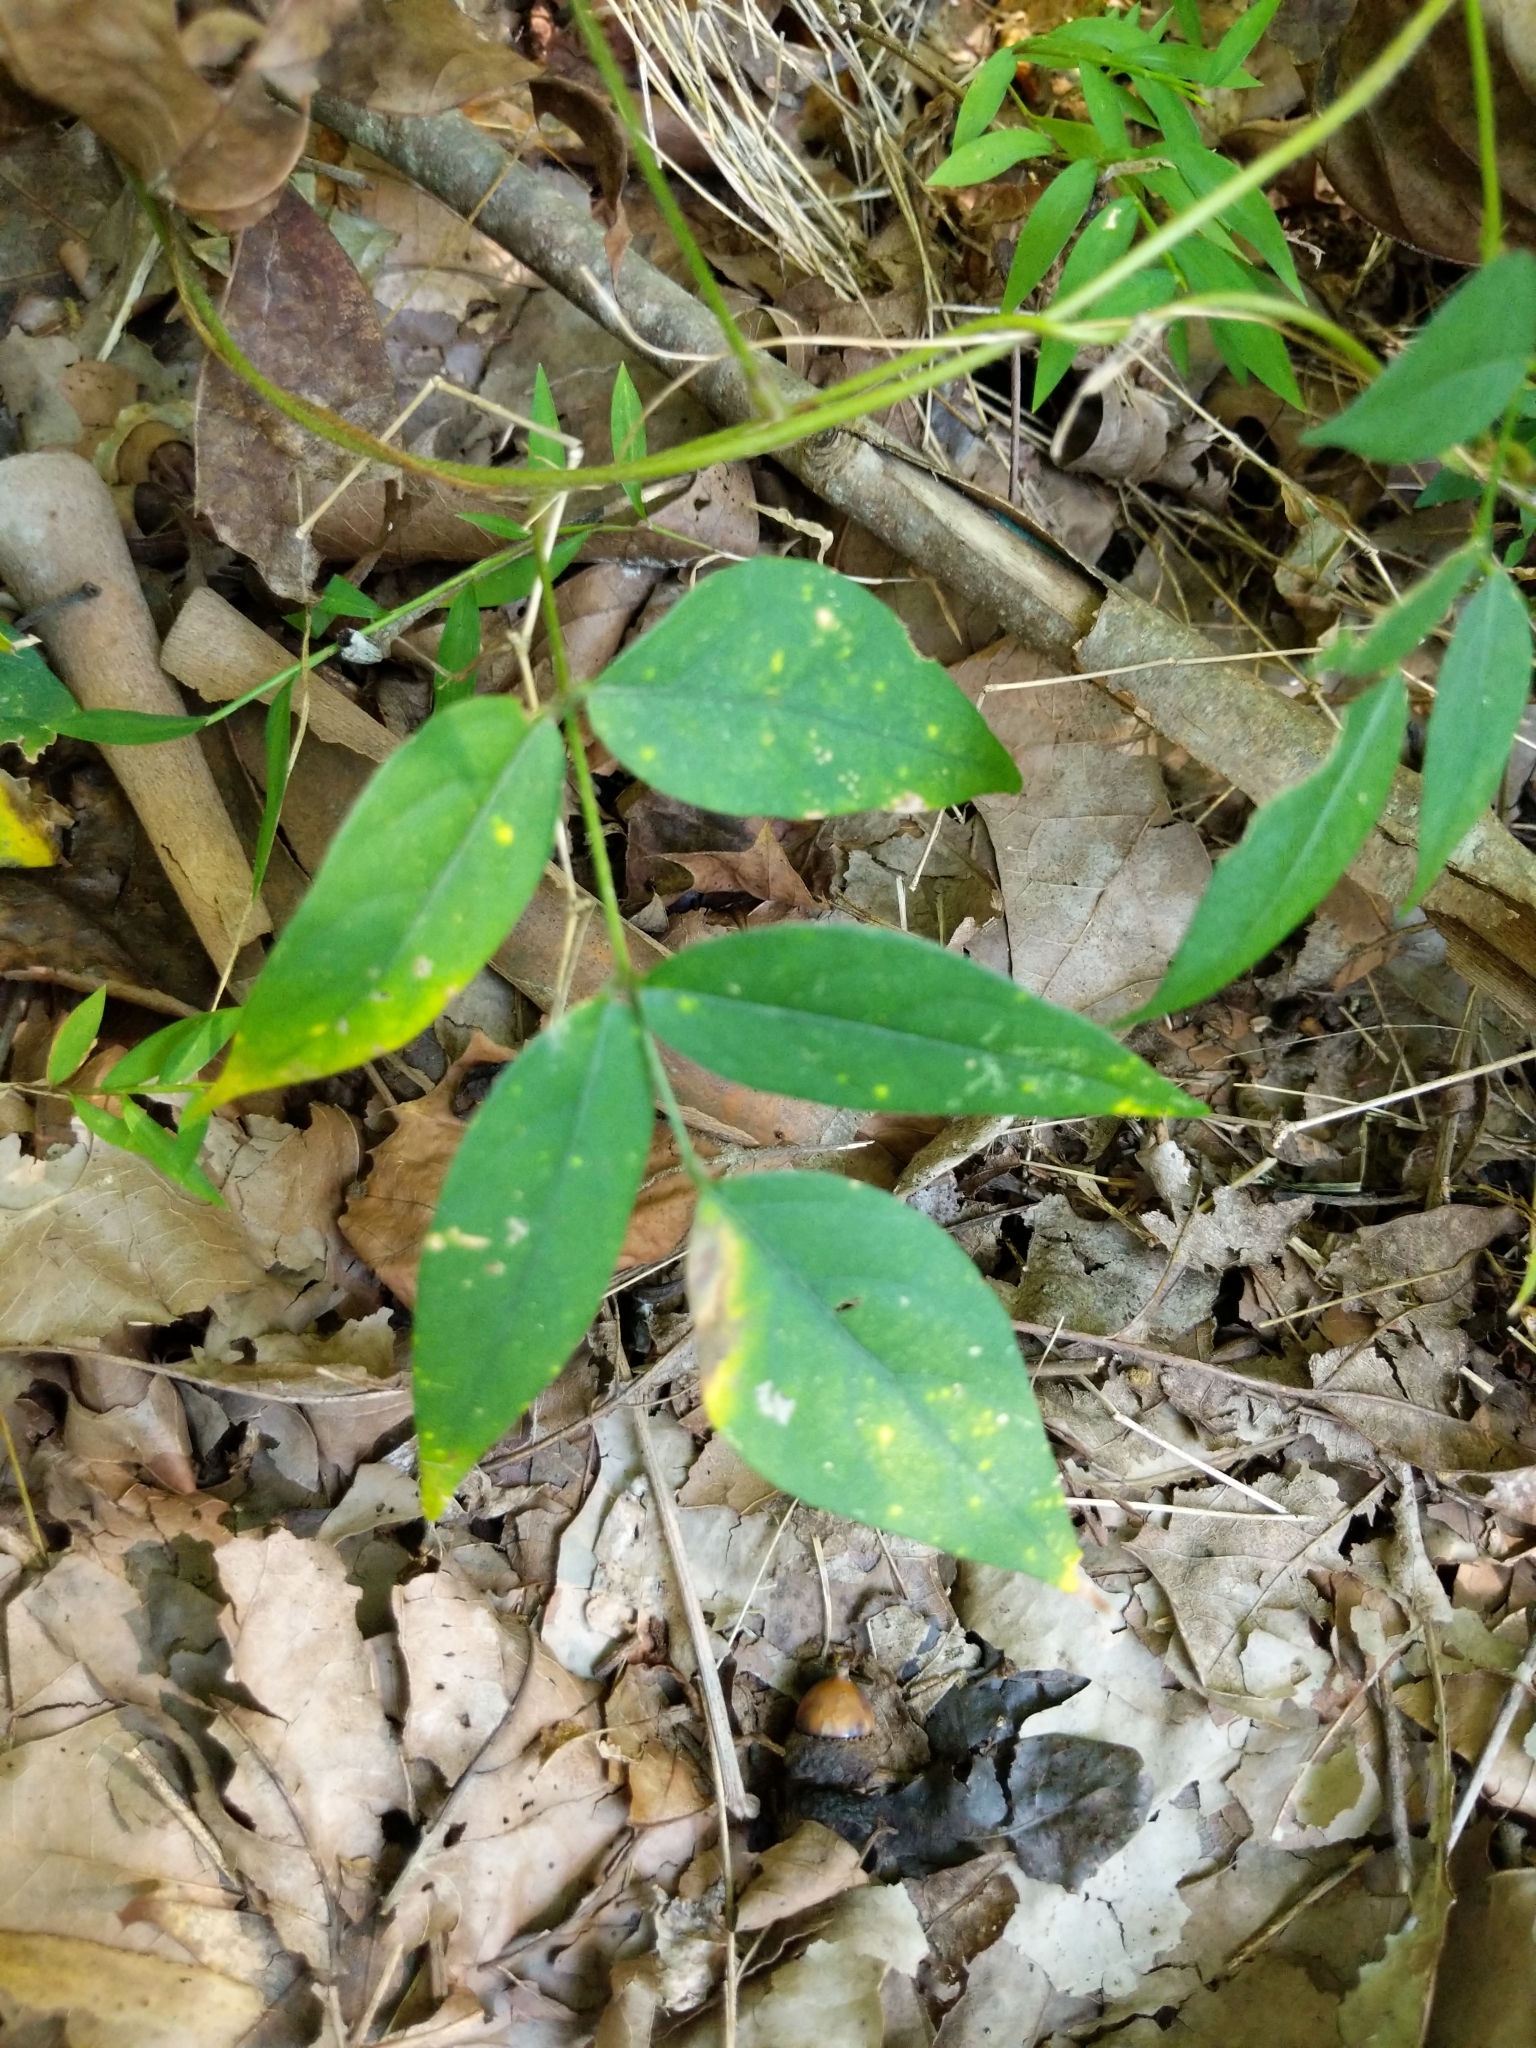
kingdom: Plantae
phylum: Tracheophyta
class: Magnoliopsida
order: Fabales
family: Fabaceae
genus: Apios
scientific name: Apios americana
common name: American potato-bean
